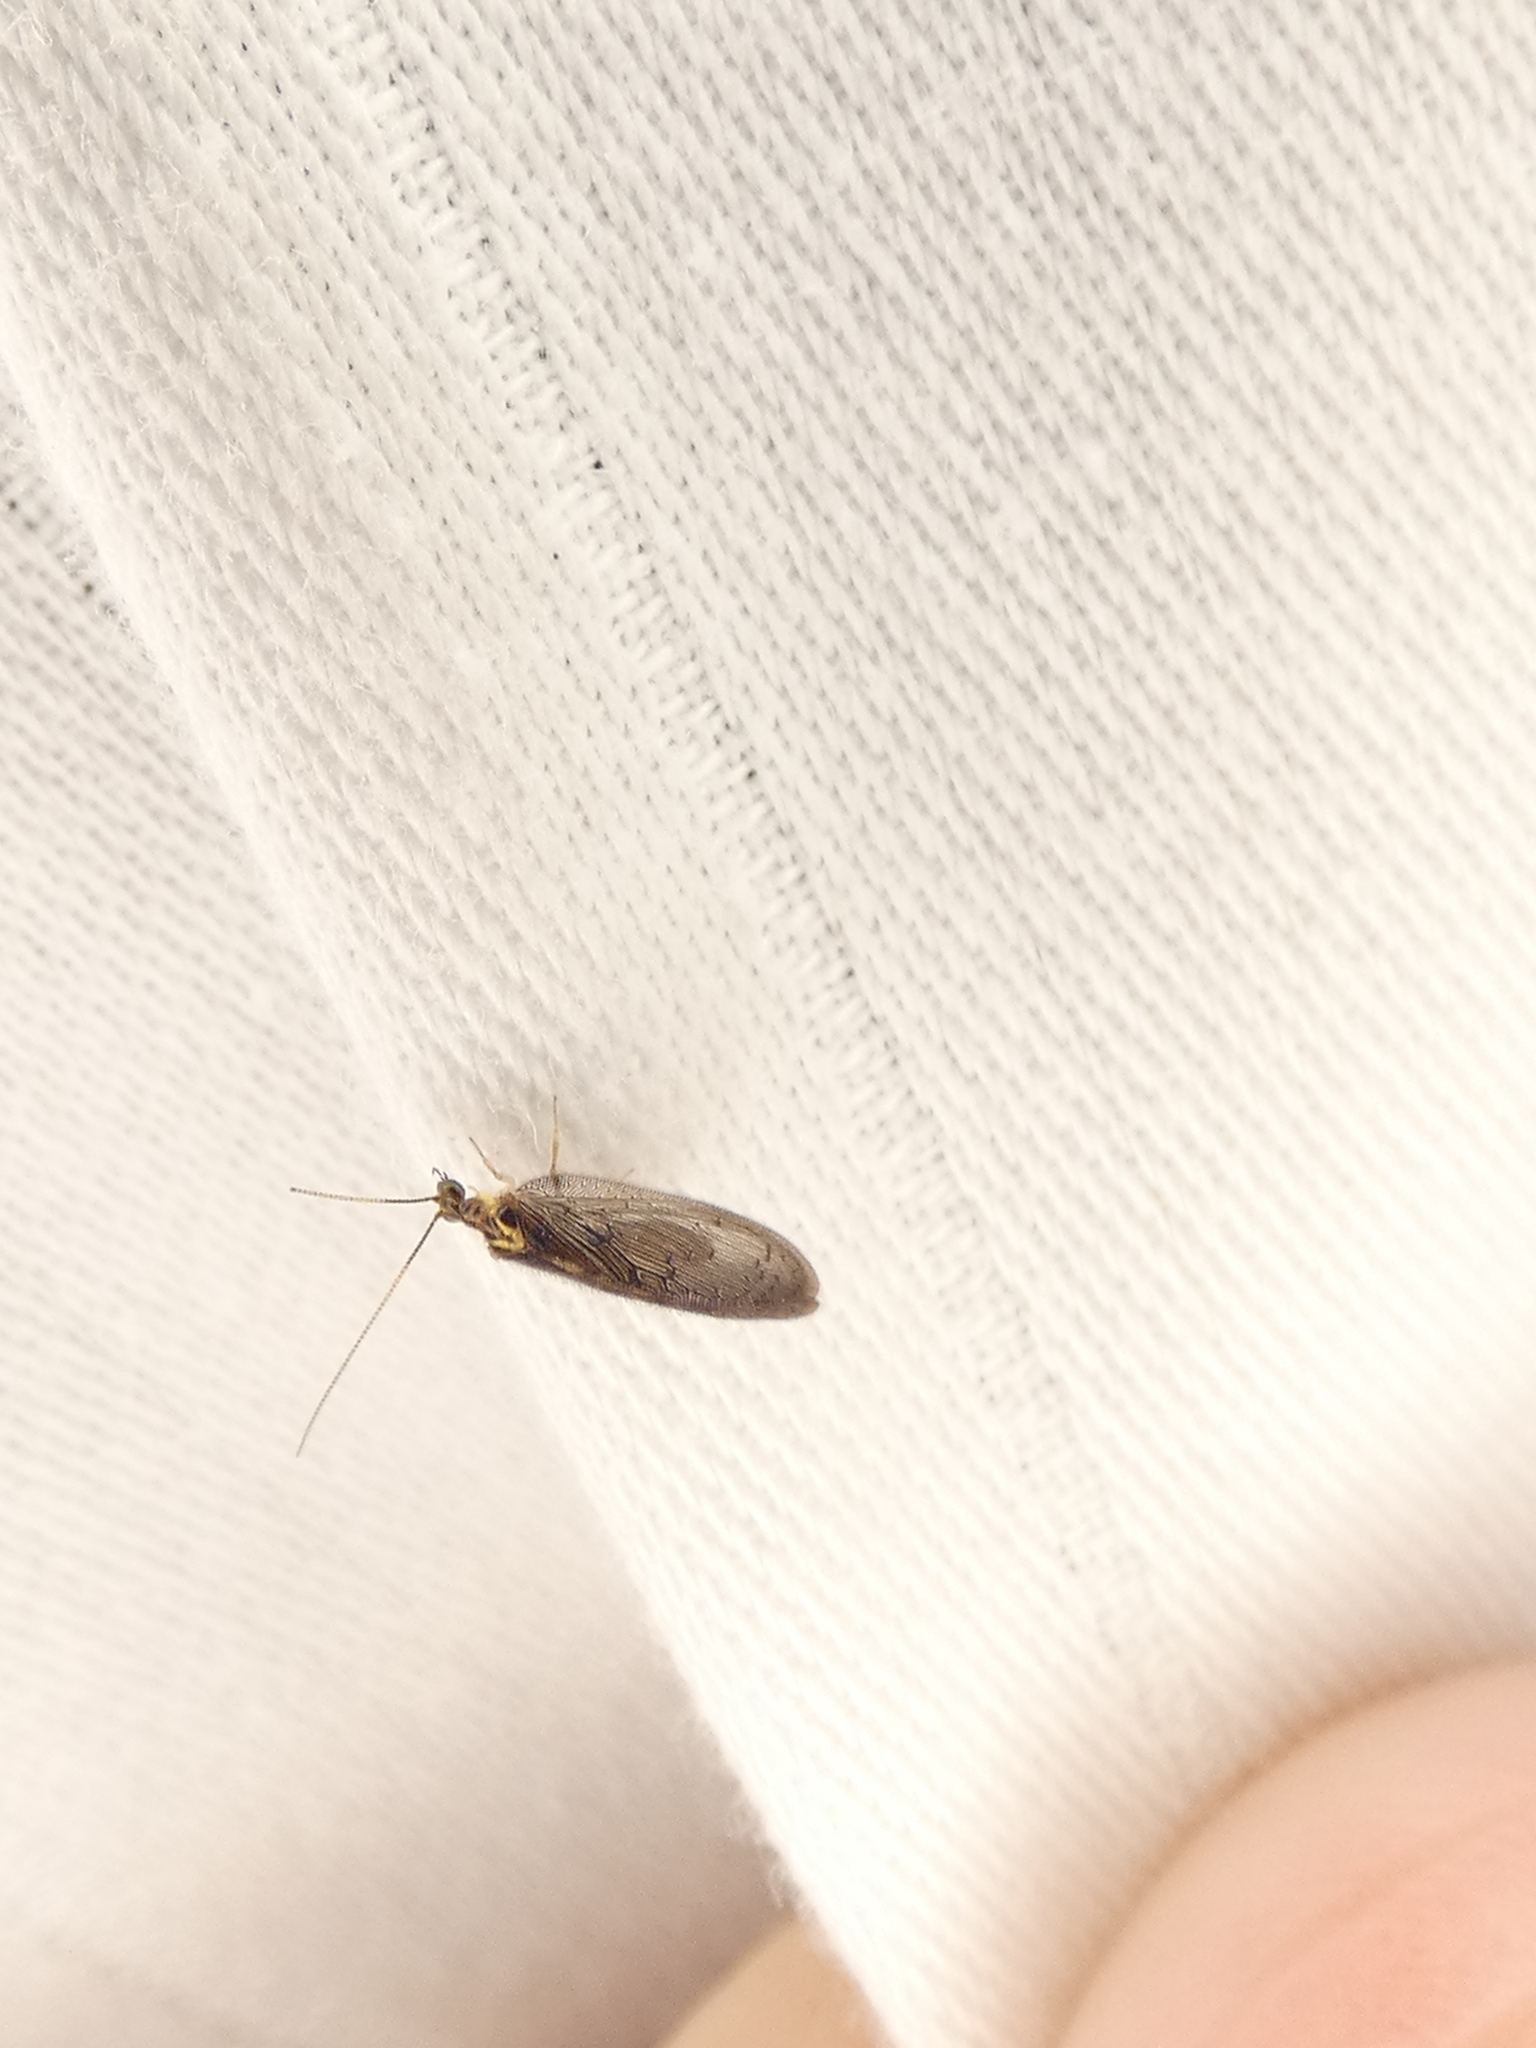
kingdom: Animalia
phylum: Arthropoda
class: Insecta
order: Neuroptera
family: Hemerobiidae
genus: Sympherobius
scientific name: Sympherobius occidentalis
